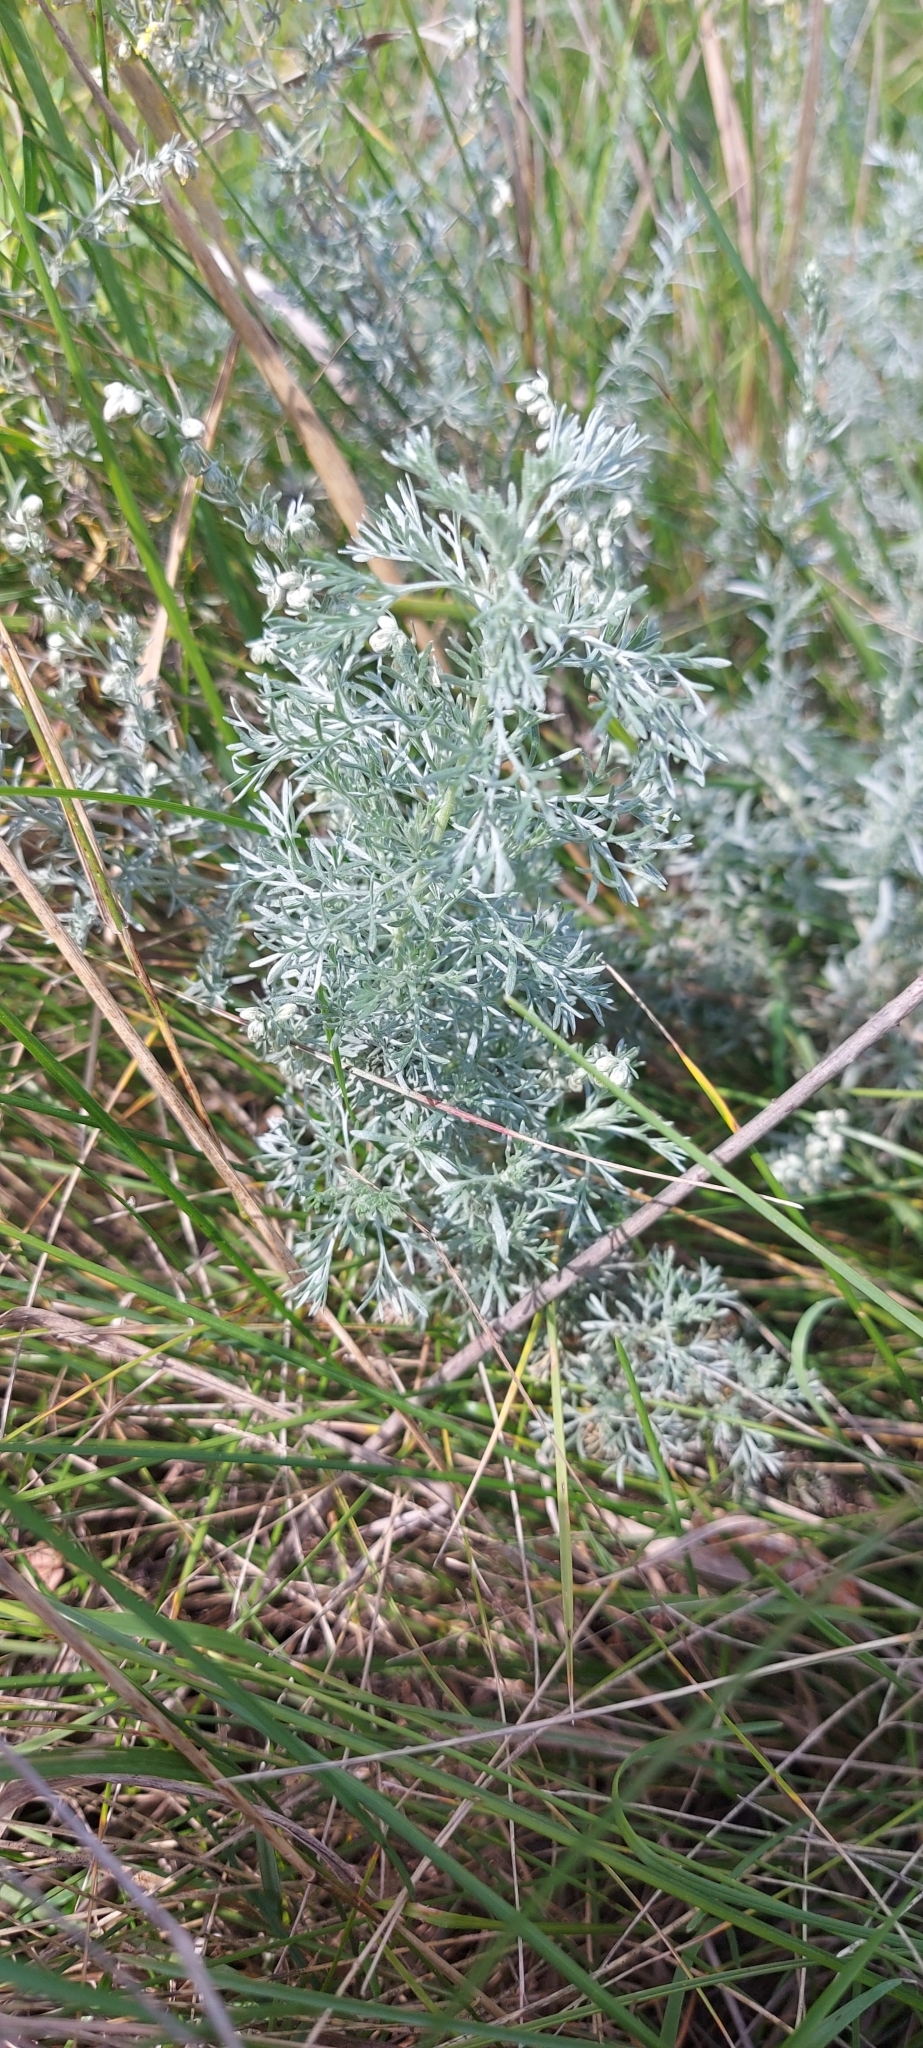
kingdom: Plantae
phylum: Tracheophyta
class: Magnoliopsida
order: Asterales
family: Asteraceae
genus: Artemisia
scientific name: Artemisia austriaca
